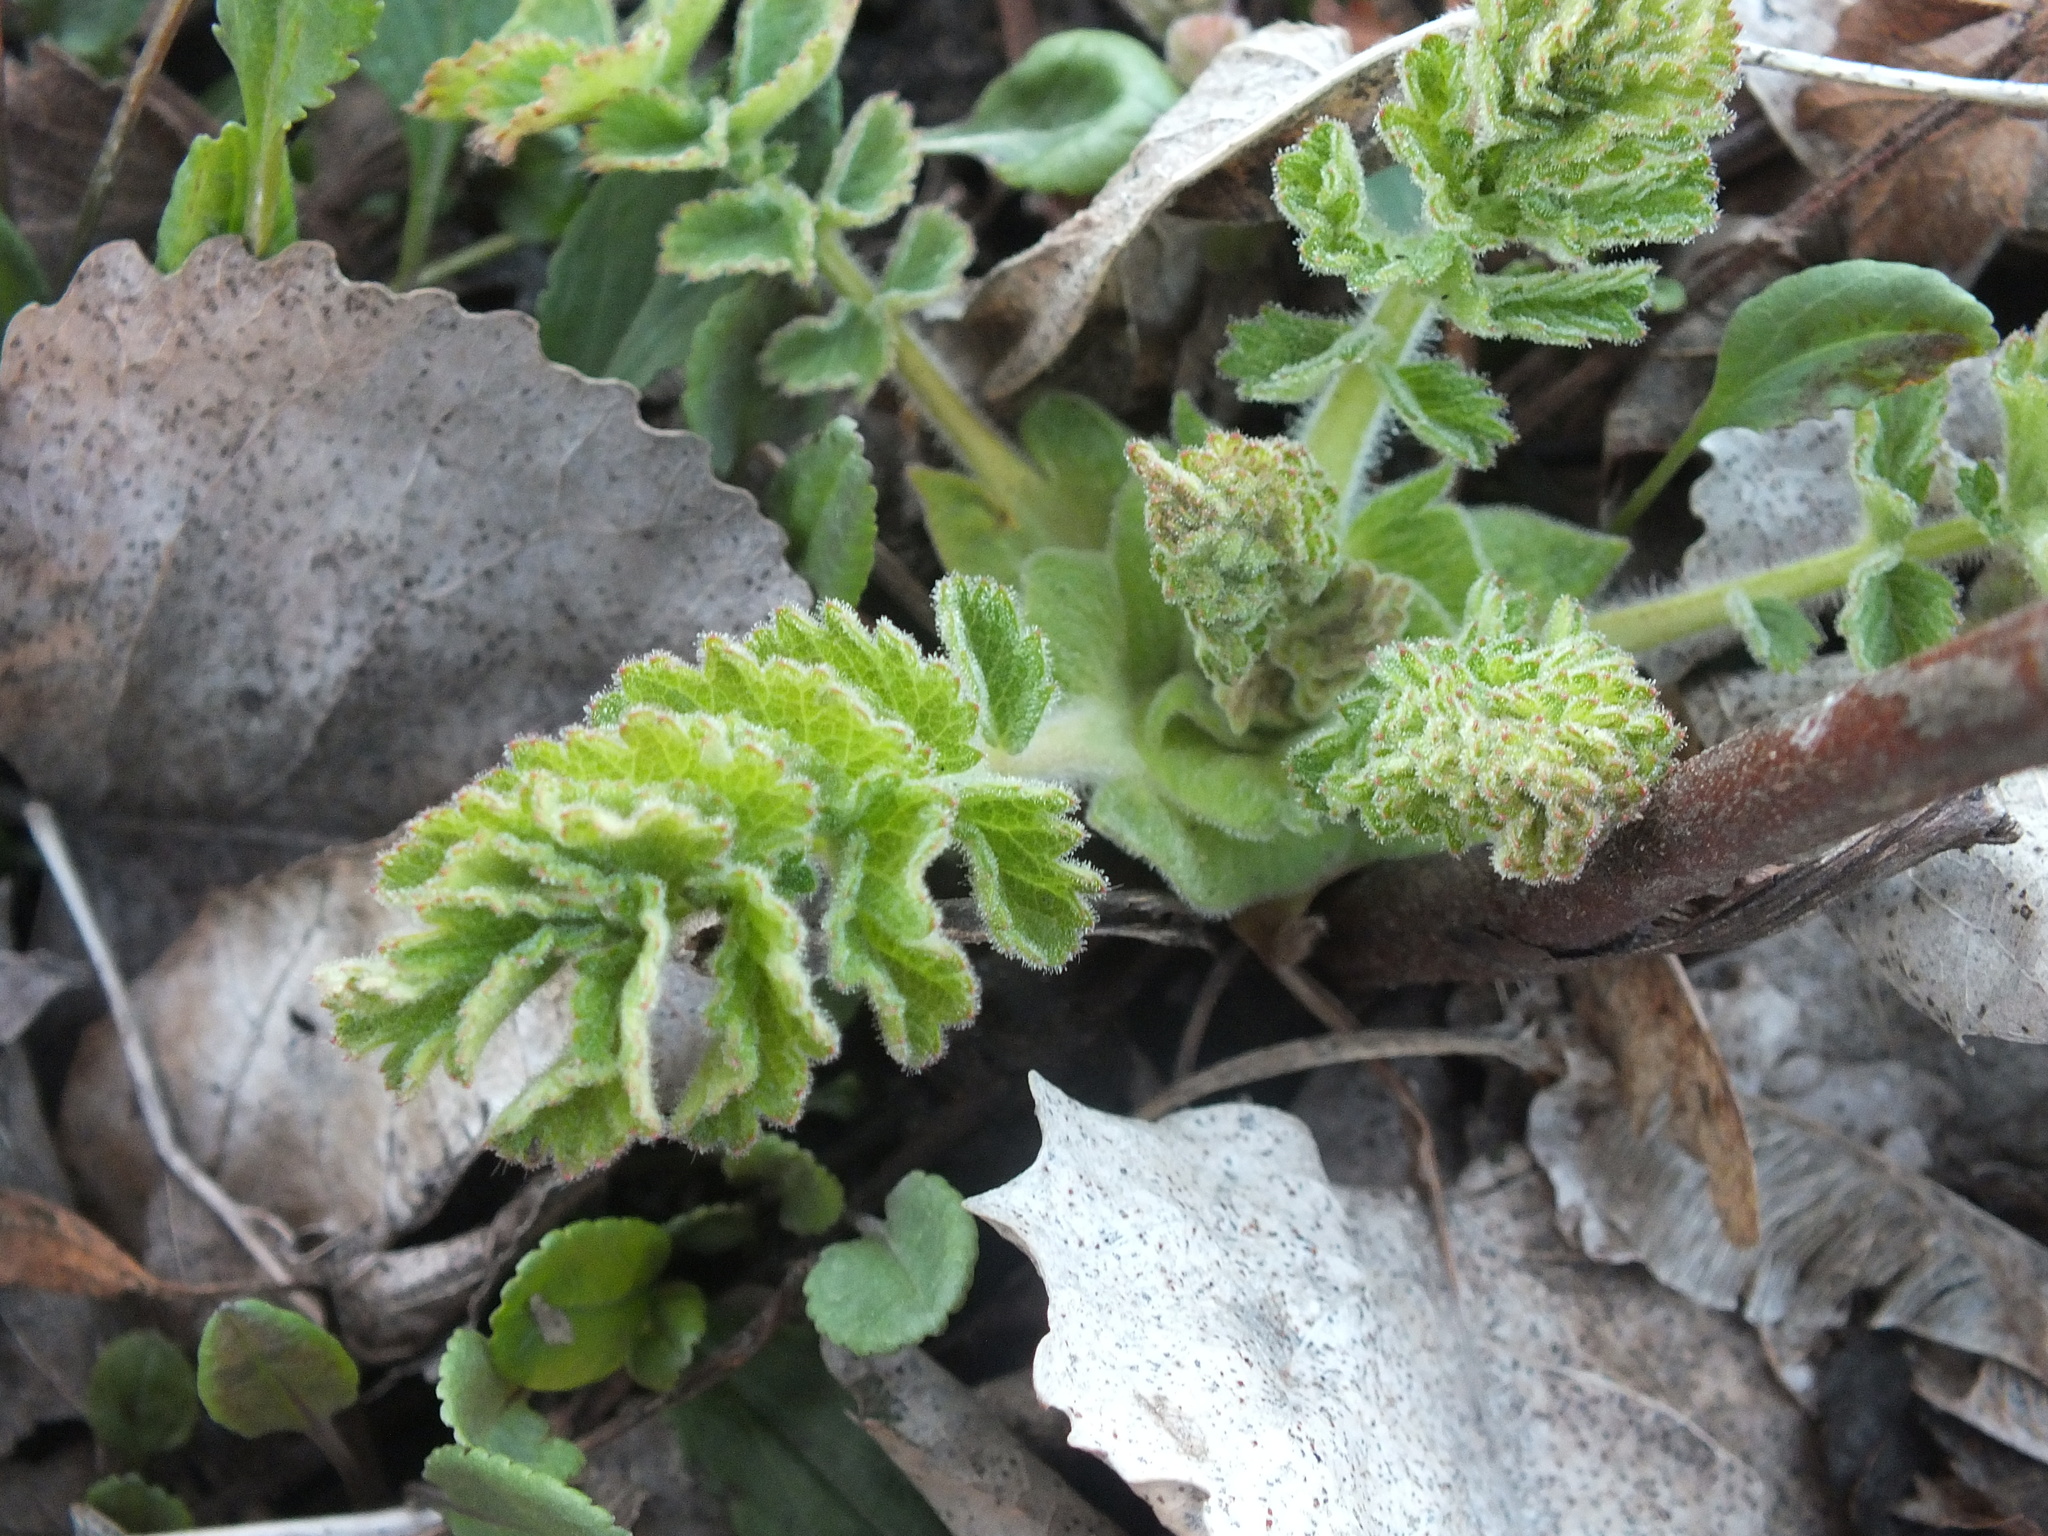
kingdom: Plantae
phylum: Tracheophyta
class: Magnoliopsida
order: Rosales
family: Rosaceae
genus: Drymocallis
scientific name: Drymocallis arguta
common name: Tall cinquefoil
